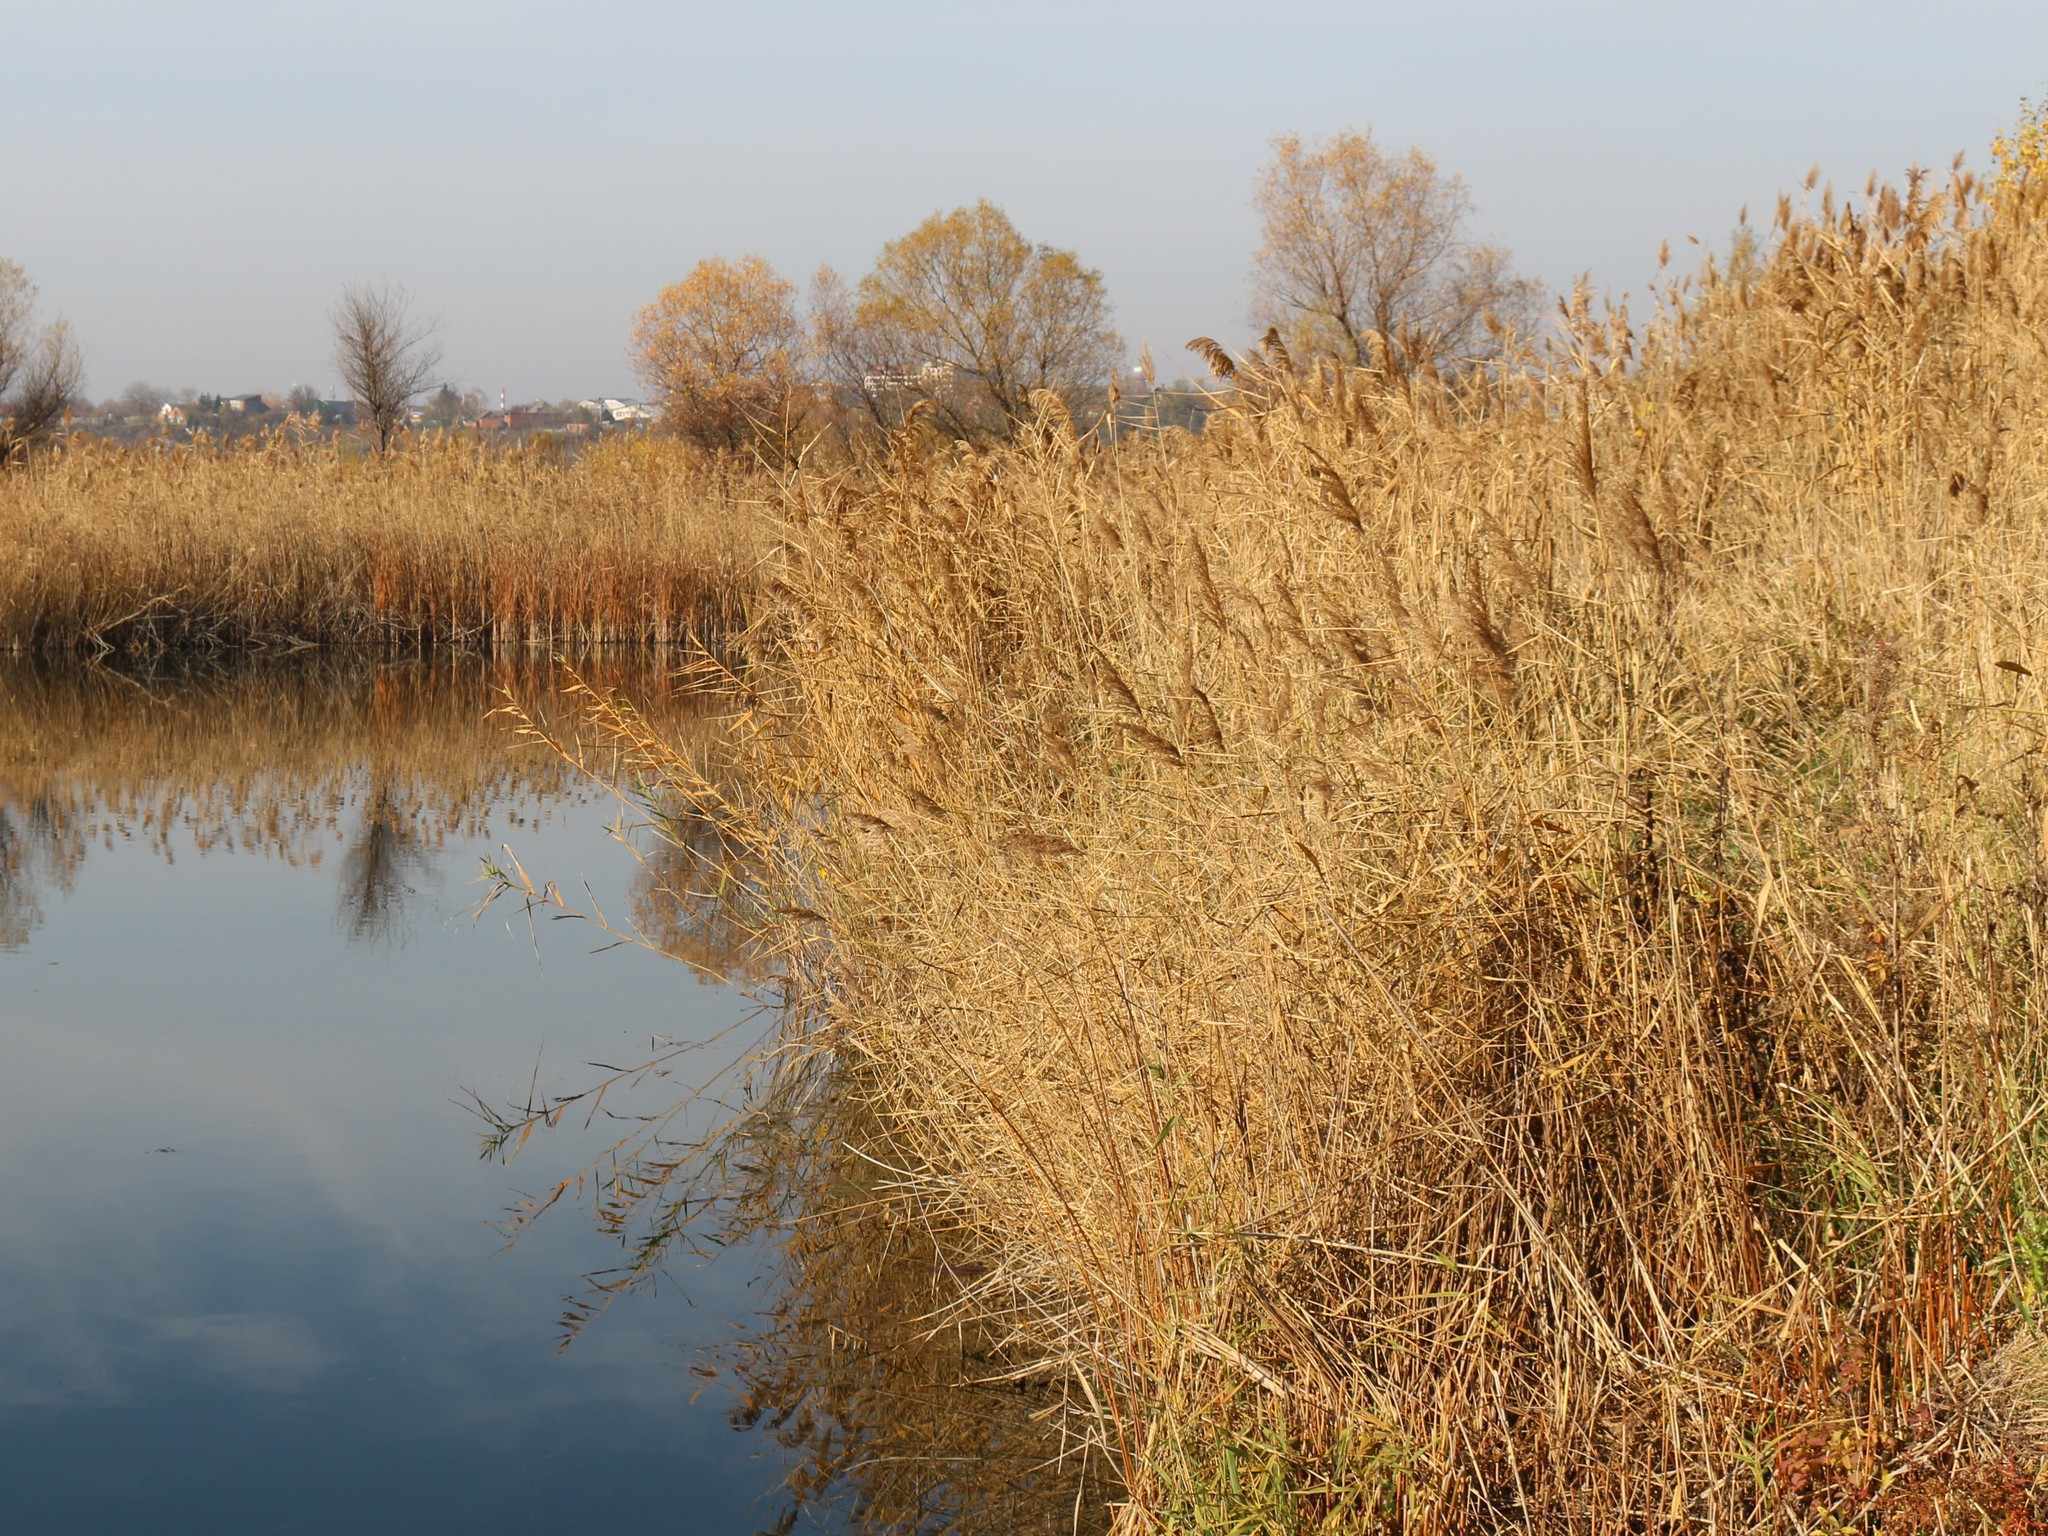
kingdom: Plantae
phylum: Tracheophyta
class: Liliopsida
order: Poales
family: Poaceae
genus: Phragmites
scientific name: Phragmites australis
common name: Common reed
